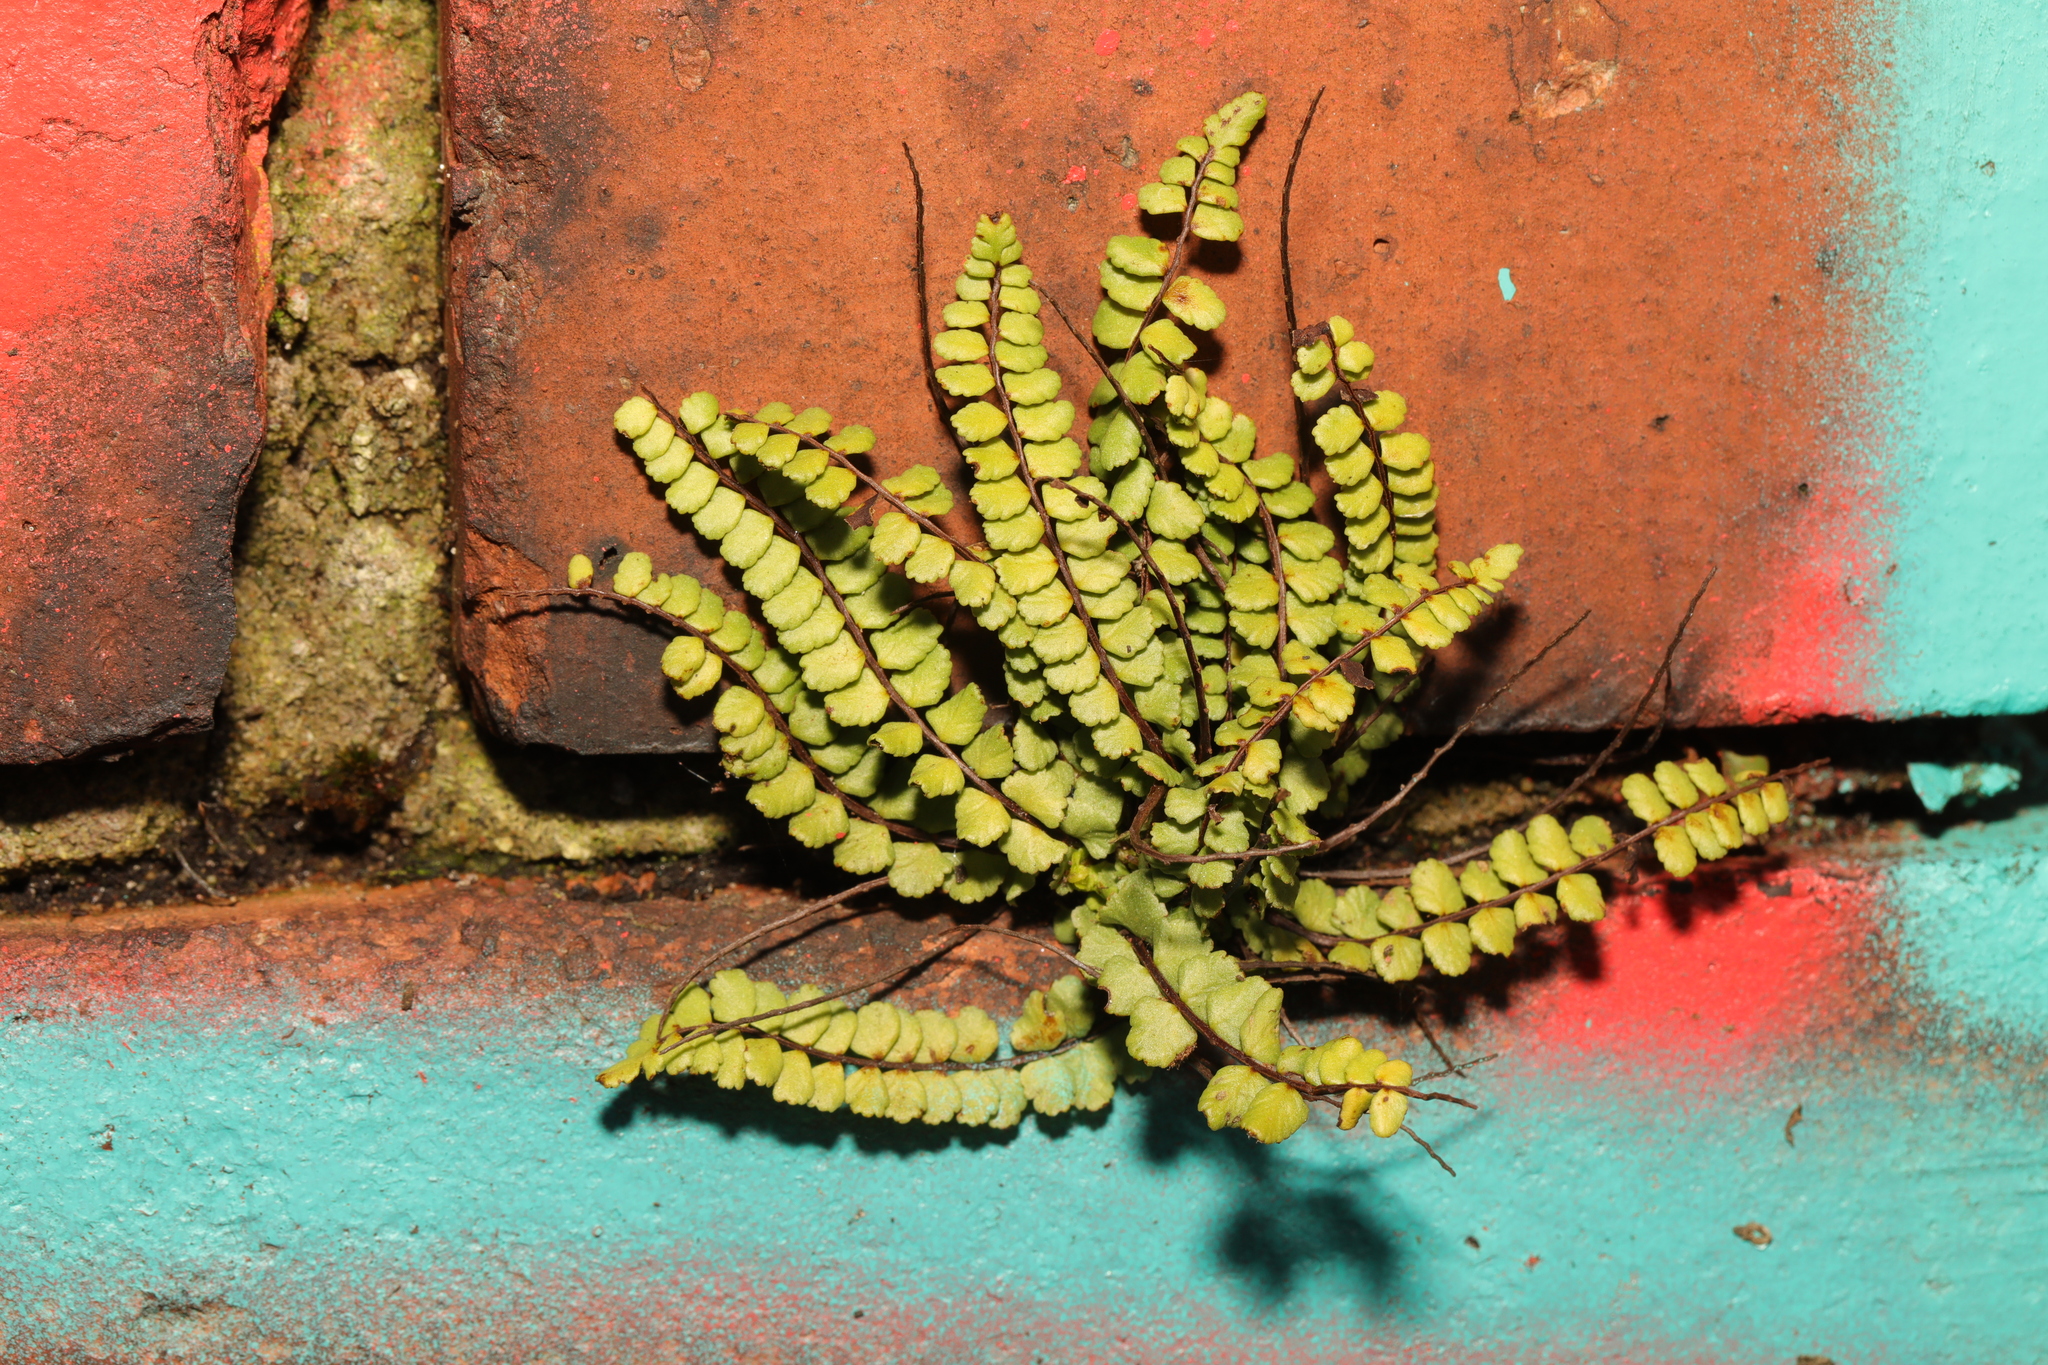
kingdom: Plantae
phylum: Tracheophyta
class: Polypodiopsida
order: Polypodiales
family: Aspleniaceae
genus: Asplenium
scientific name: Asplenium trichomanes
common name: Maidenhair spleenwort
